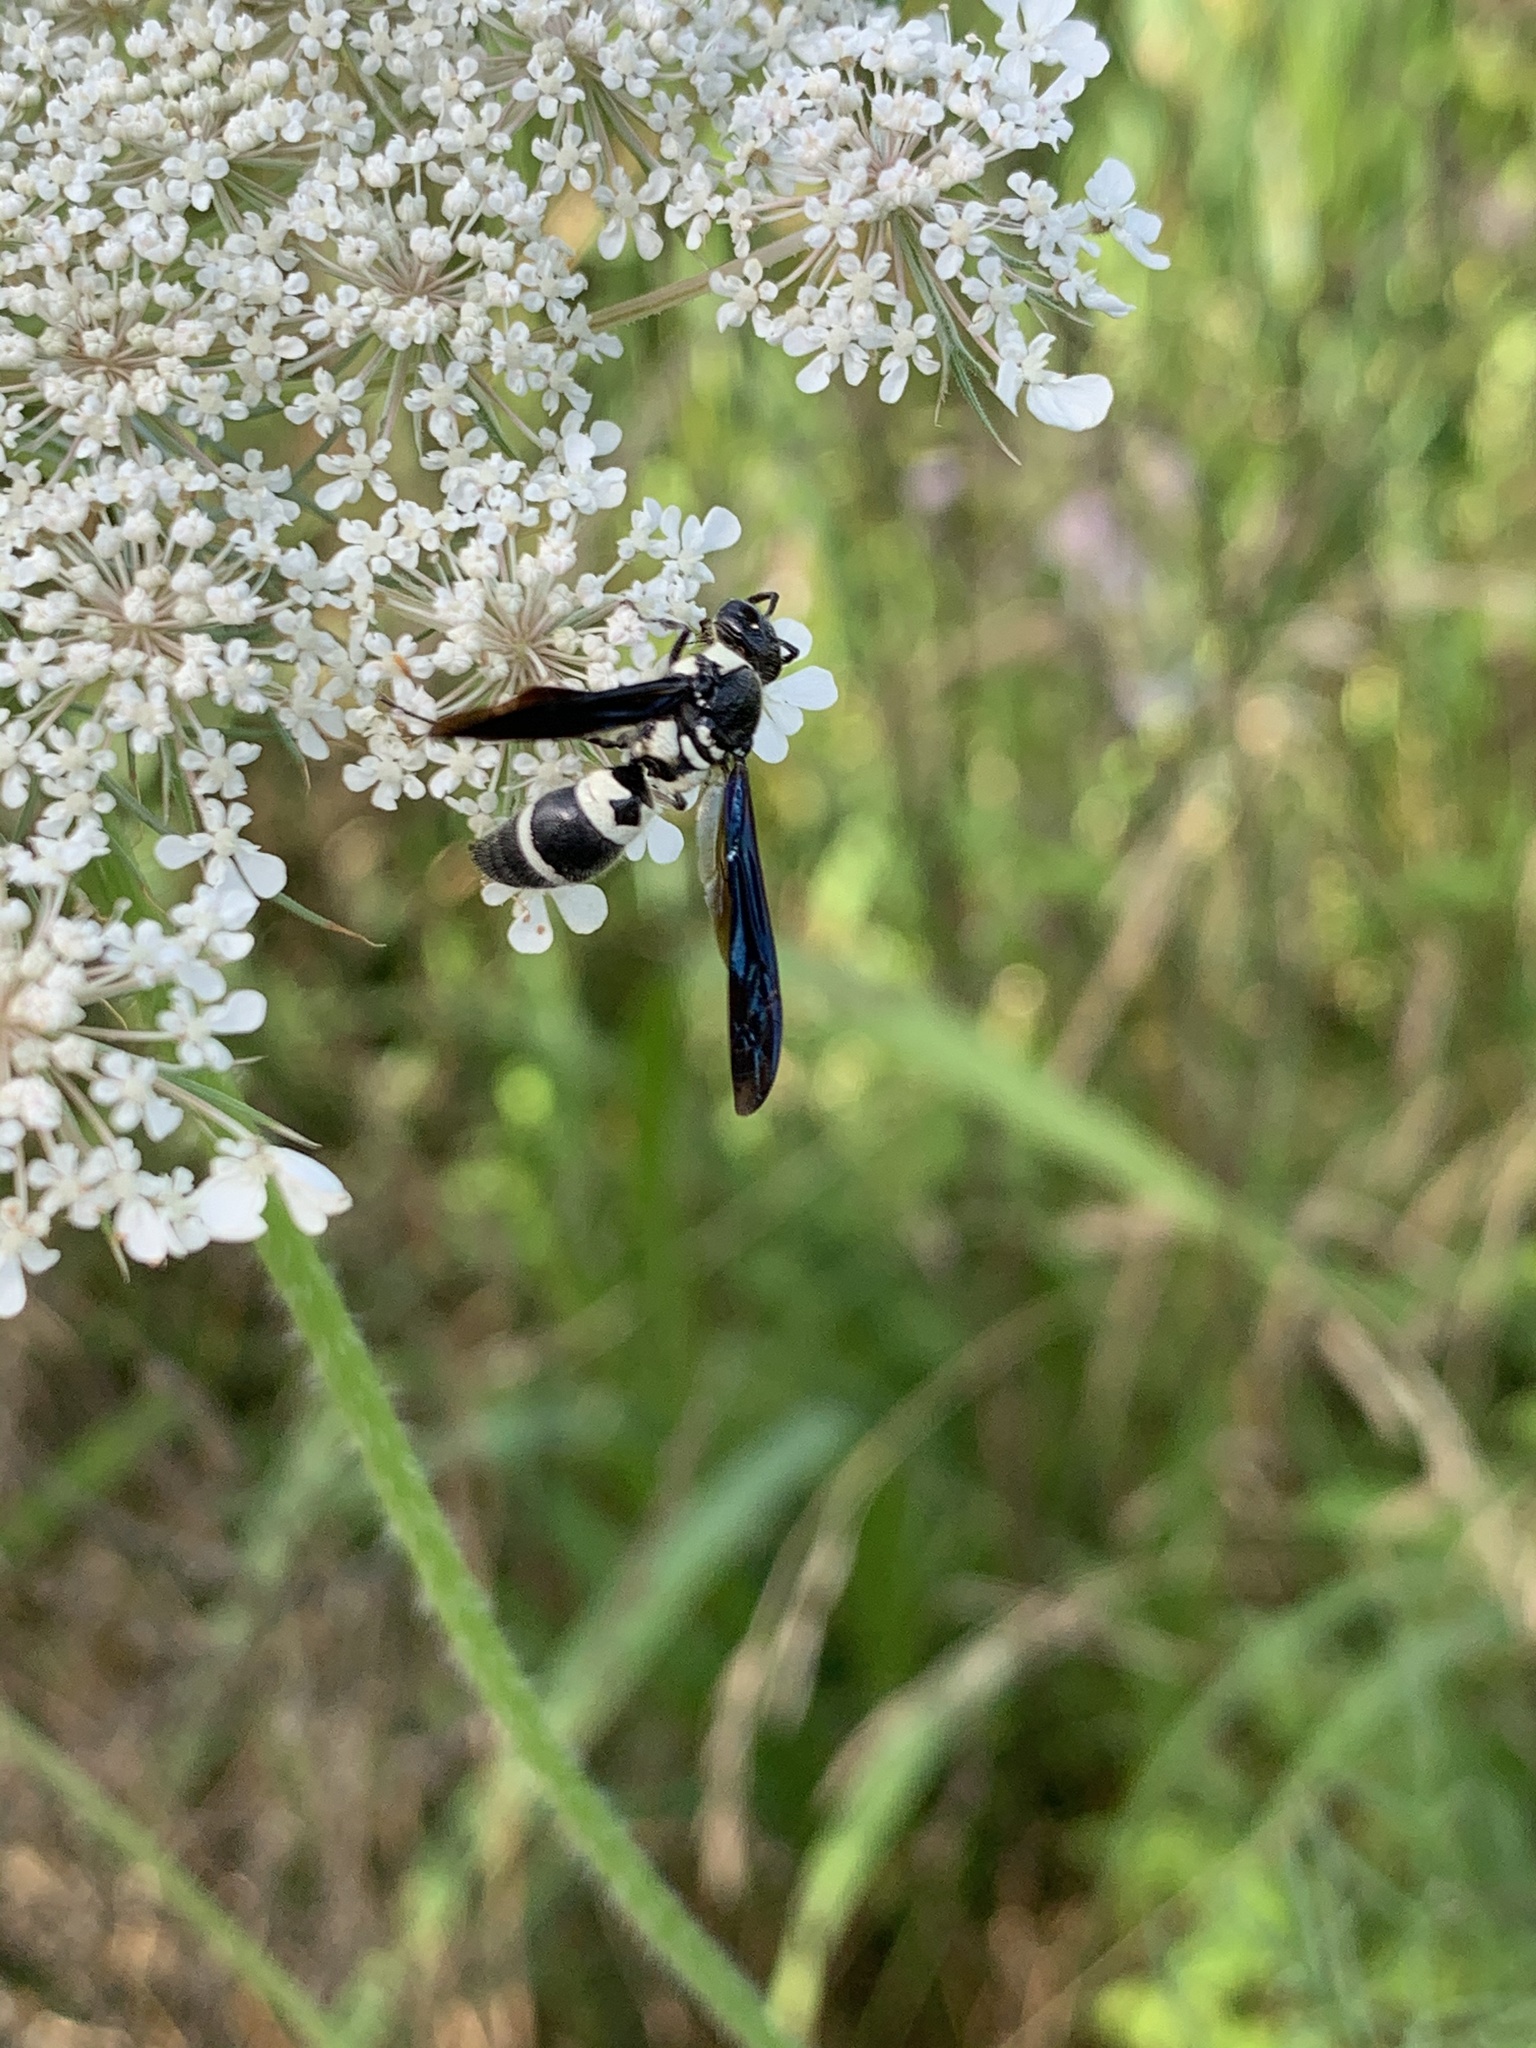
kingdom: Animalia
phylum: Arthropoda
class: Insecta
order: Hymenoptera
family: Eumenidae
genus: Pseudodynerus
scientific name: Pseudodynerus quadrisectus
